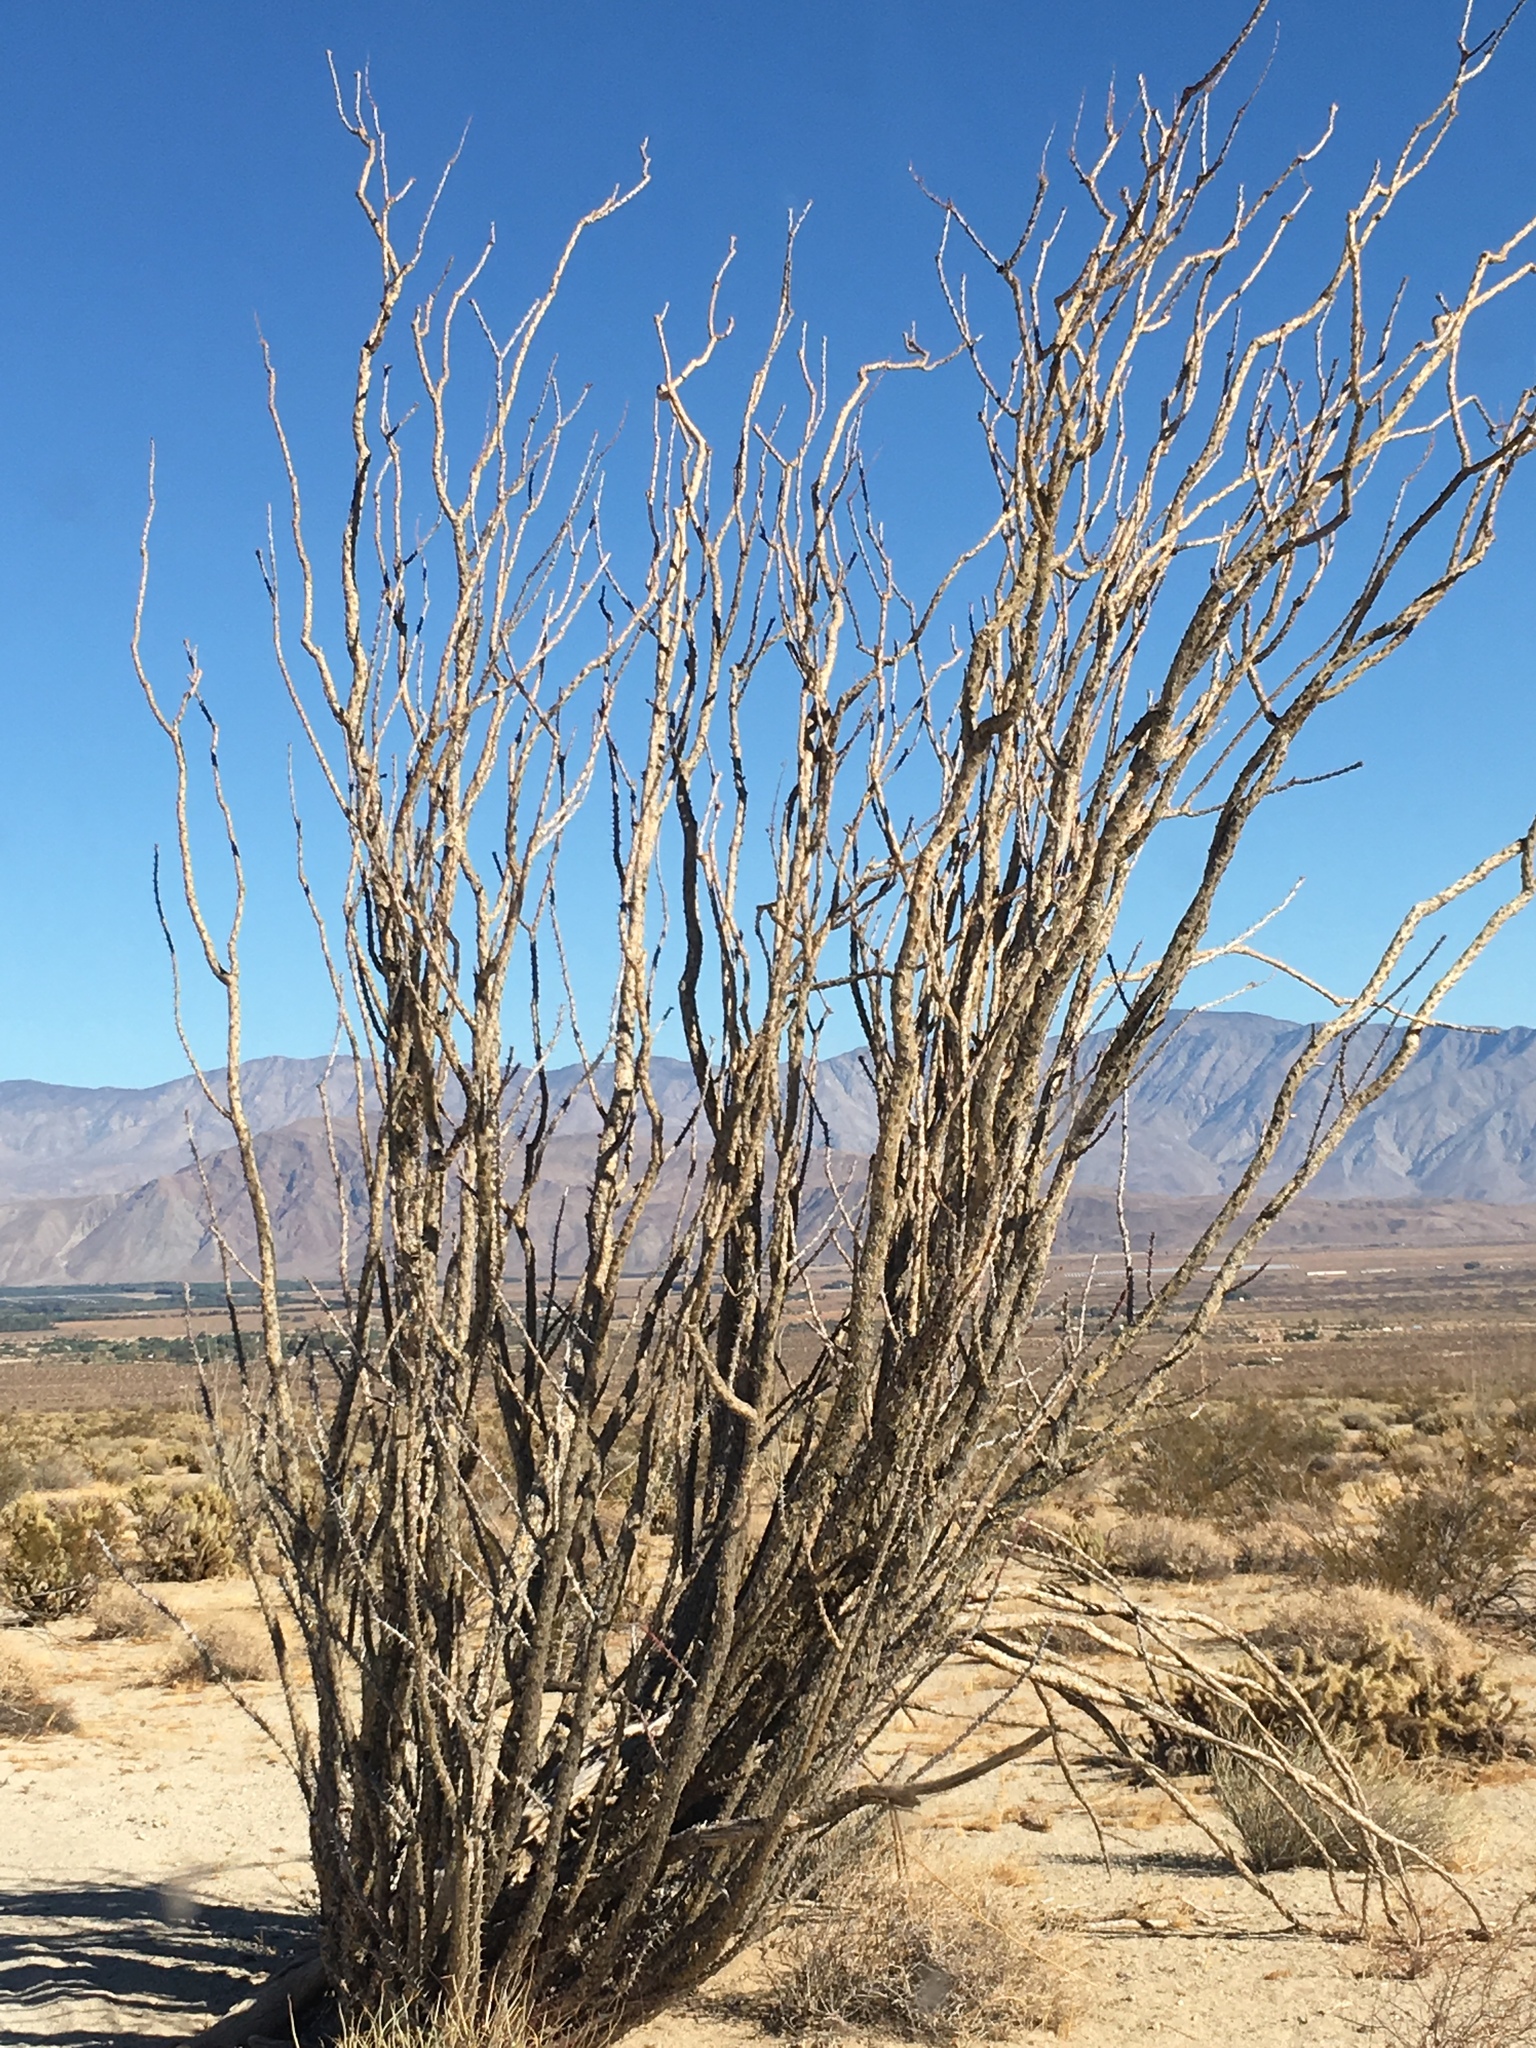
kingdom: Plantae
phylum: Tracheophyta
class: Magnoliopsida
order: Ericales
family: Fouquieriaceae
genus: Fouquieria
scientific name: Fouquieria splendens
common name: Vine-cactus
